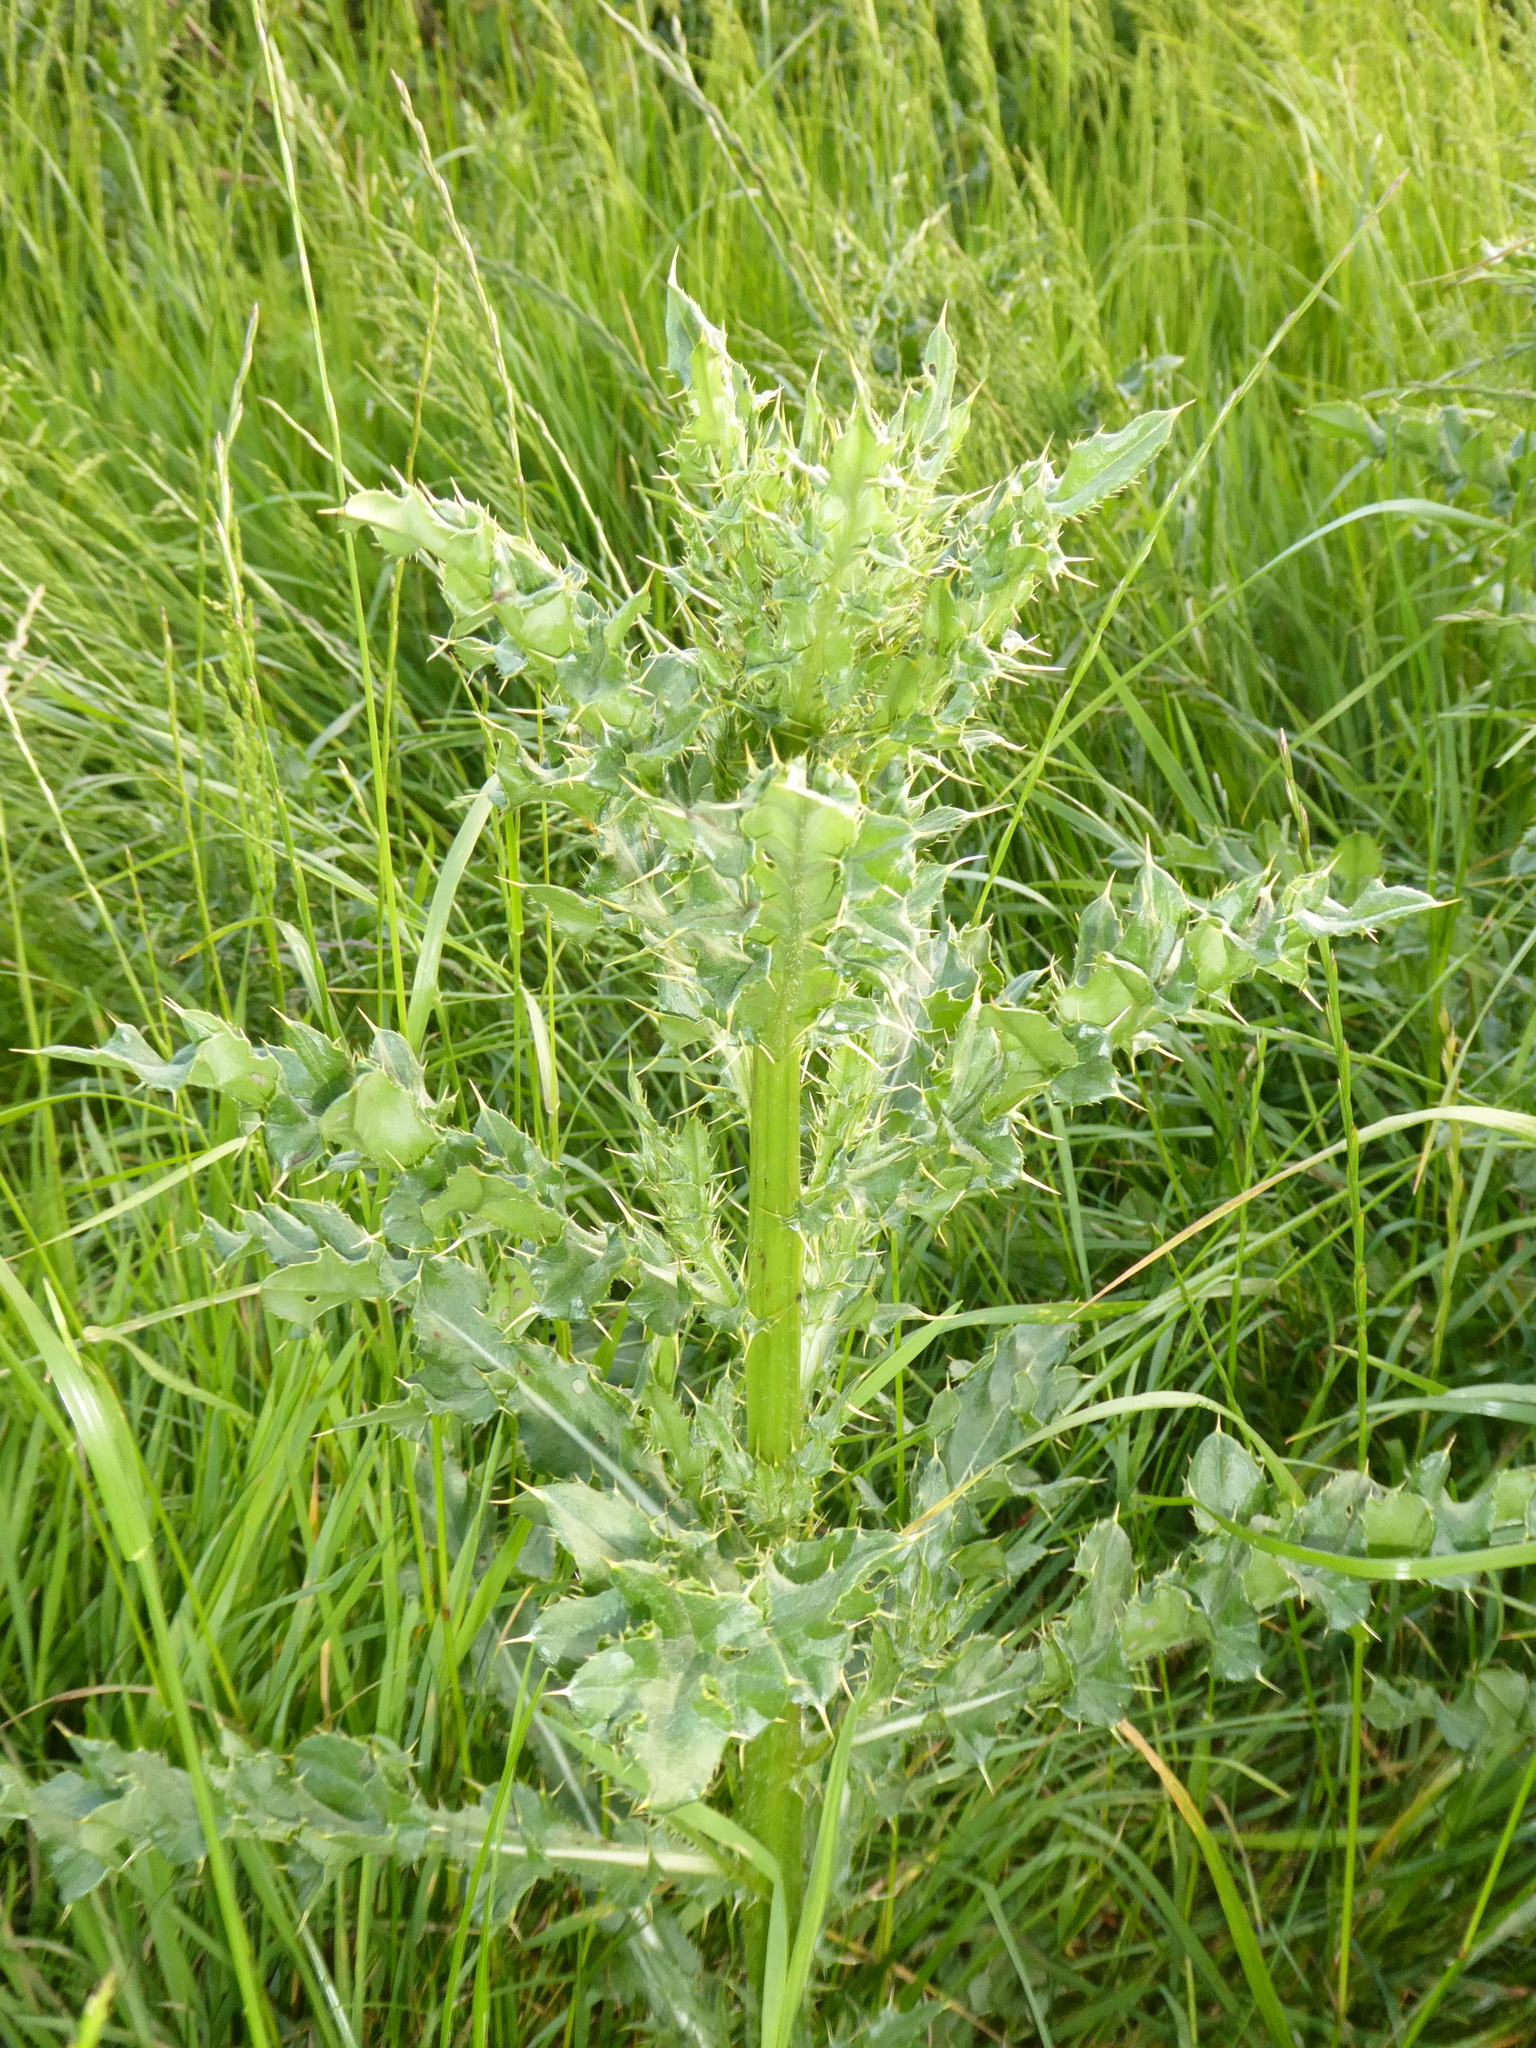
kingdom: Plantae
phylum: Tracheophyta
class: Magnoliopsida
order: Asterales
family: Asteraceae
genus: Cirsium
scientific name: Cirsium arvense
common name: Creeping thistle
